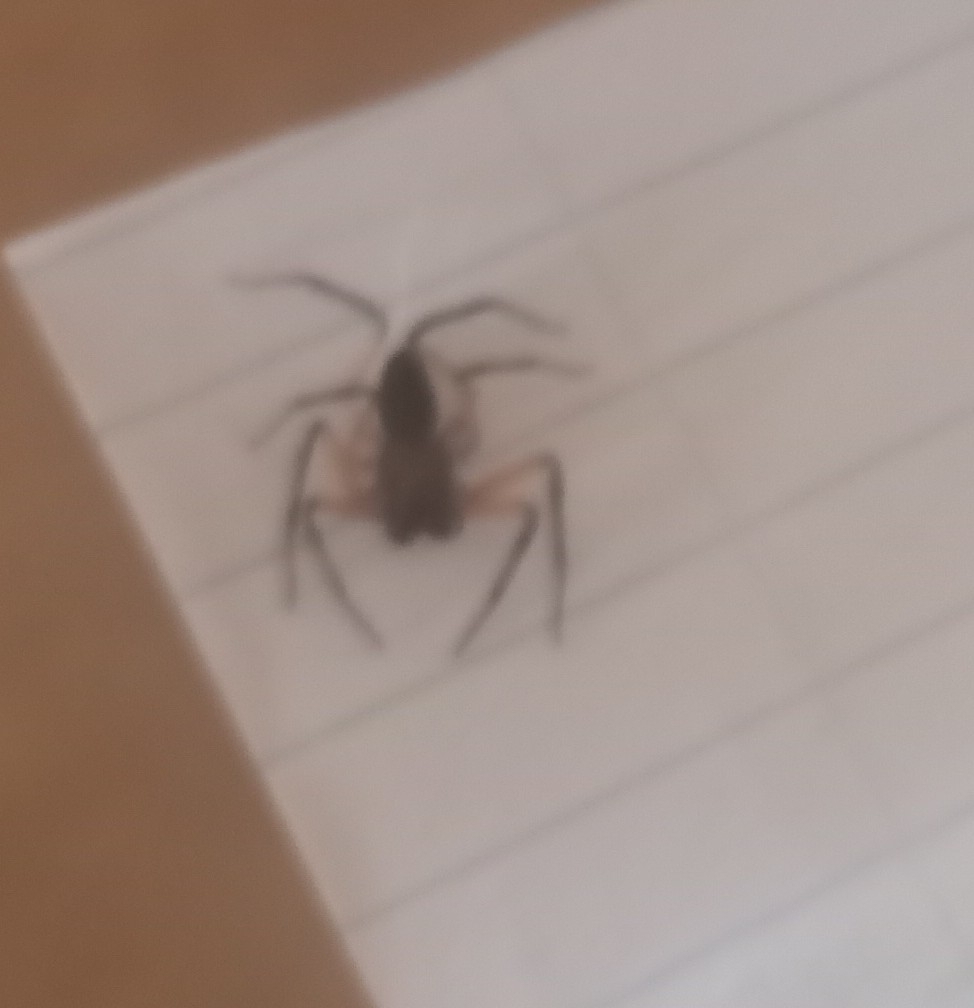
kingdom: Animalia
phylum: Arthropoda
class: Arachnida
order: Araneae
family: Trochanteriidae
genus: Platyoides
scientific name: Platyoides walteri
